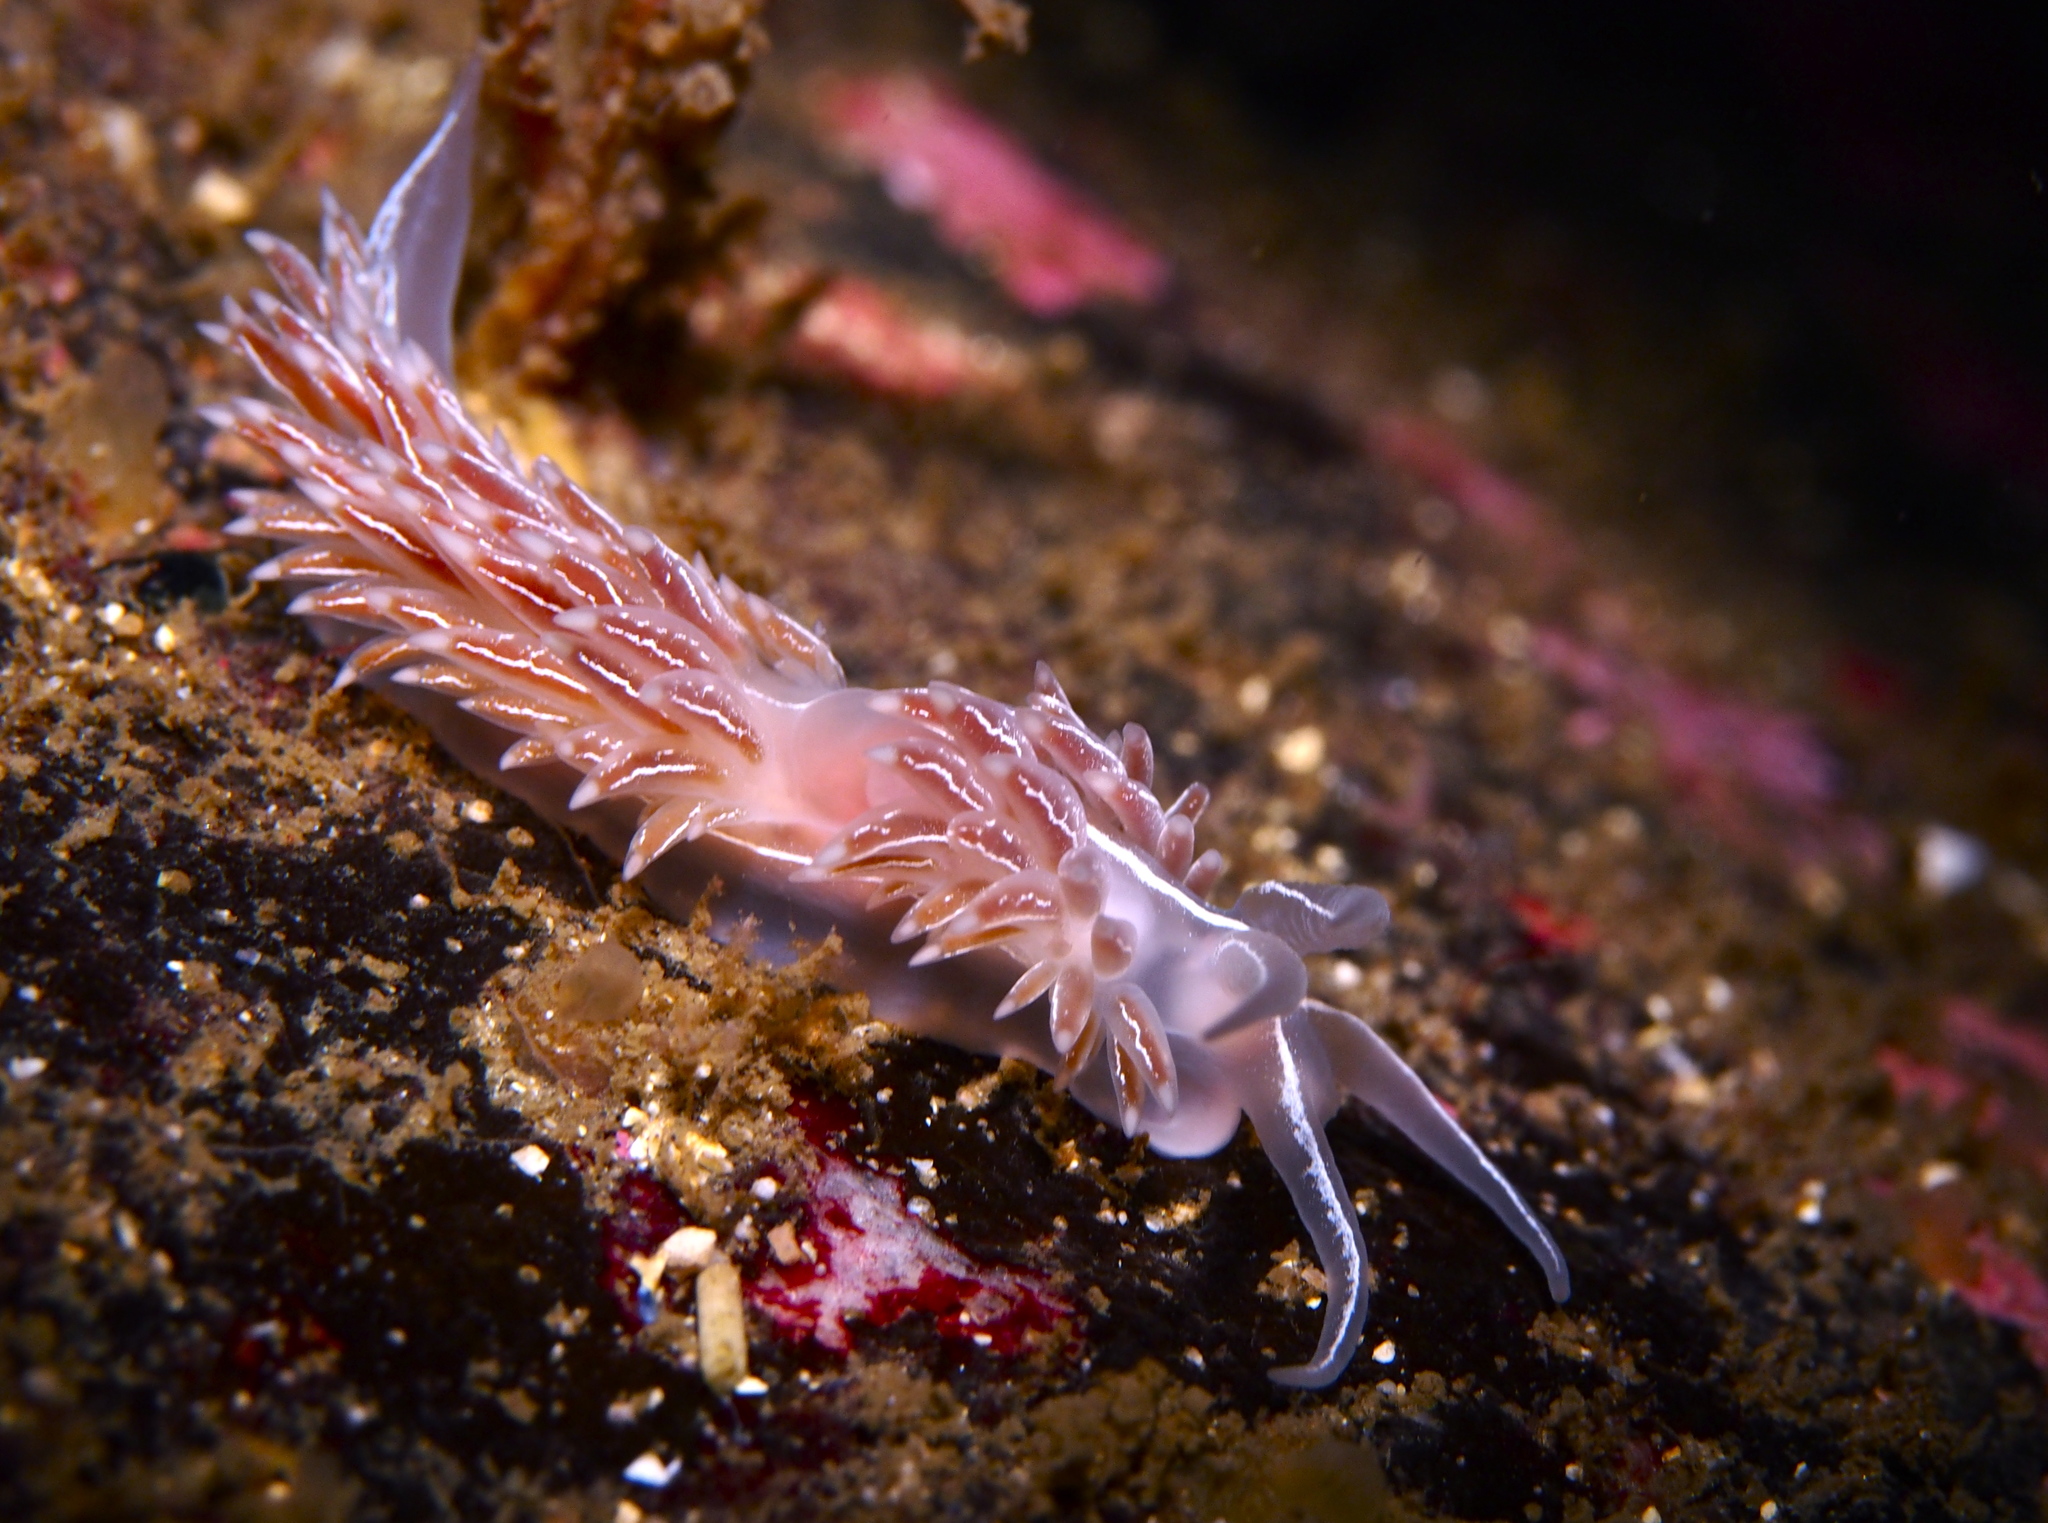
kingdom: Animalia
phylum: Mollusca
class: Gastropoda
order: Nudibranchia
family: Coryphellidae
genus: Coryphella
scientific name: Coryphella chriskaugei
